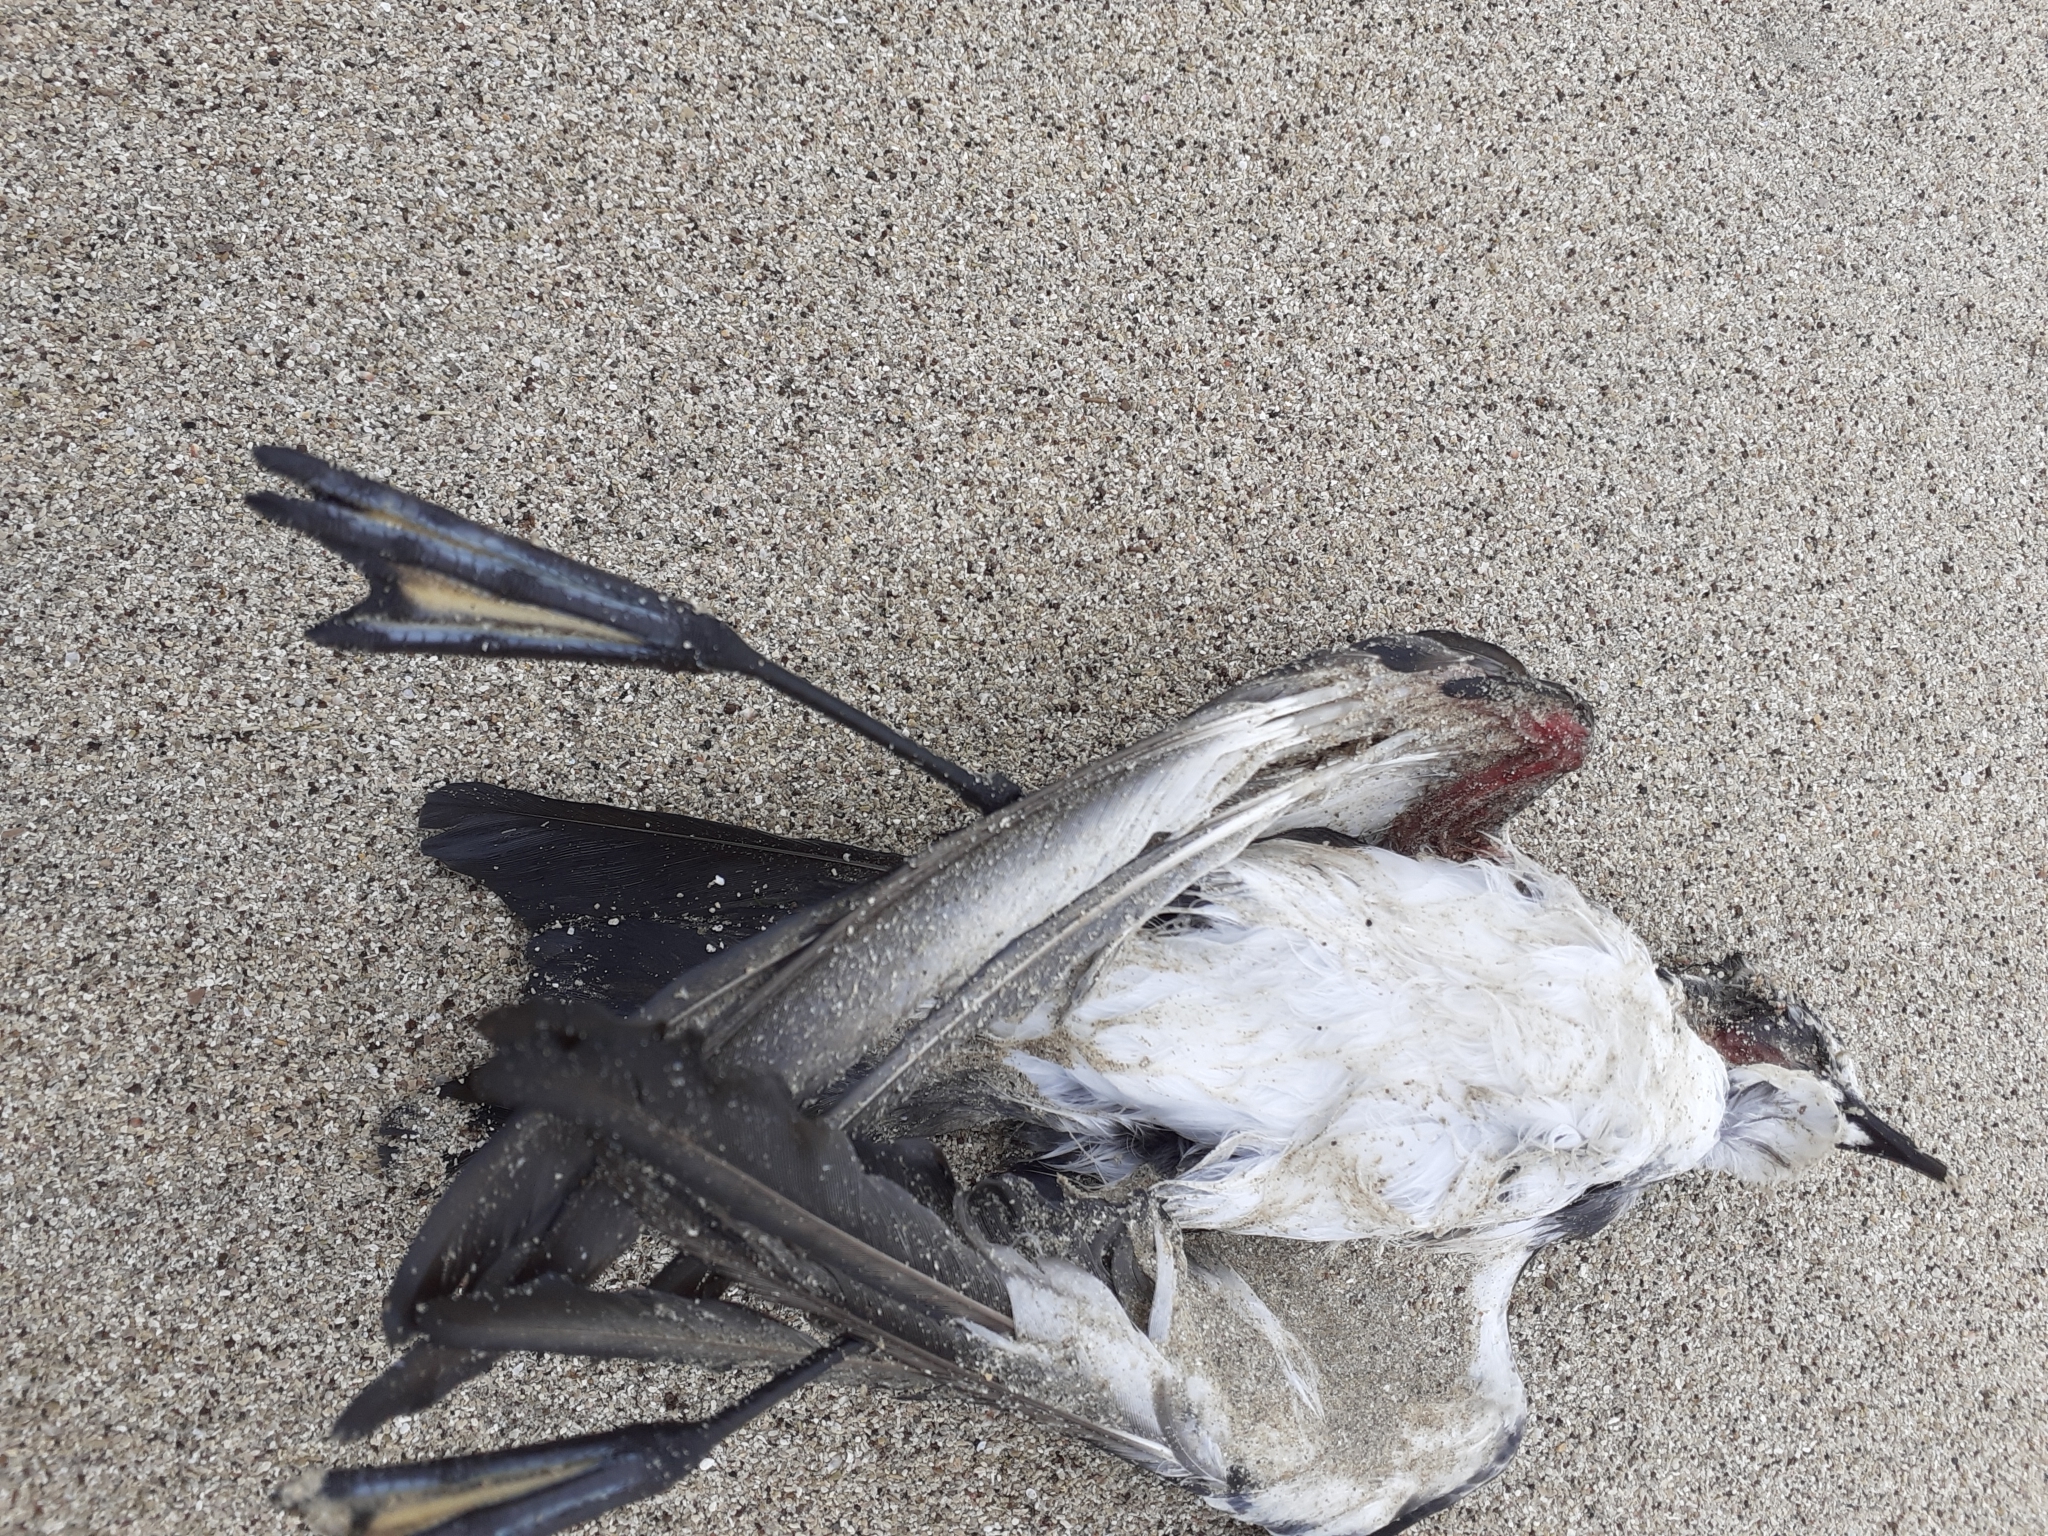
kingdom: Animalia
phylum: Chordata
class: Aves
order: Procellariiformes
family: Hydrobatidae
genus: Pelagodroma
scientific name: Pelagodroma marina
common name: White-faced storm-petrel
